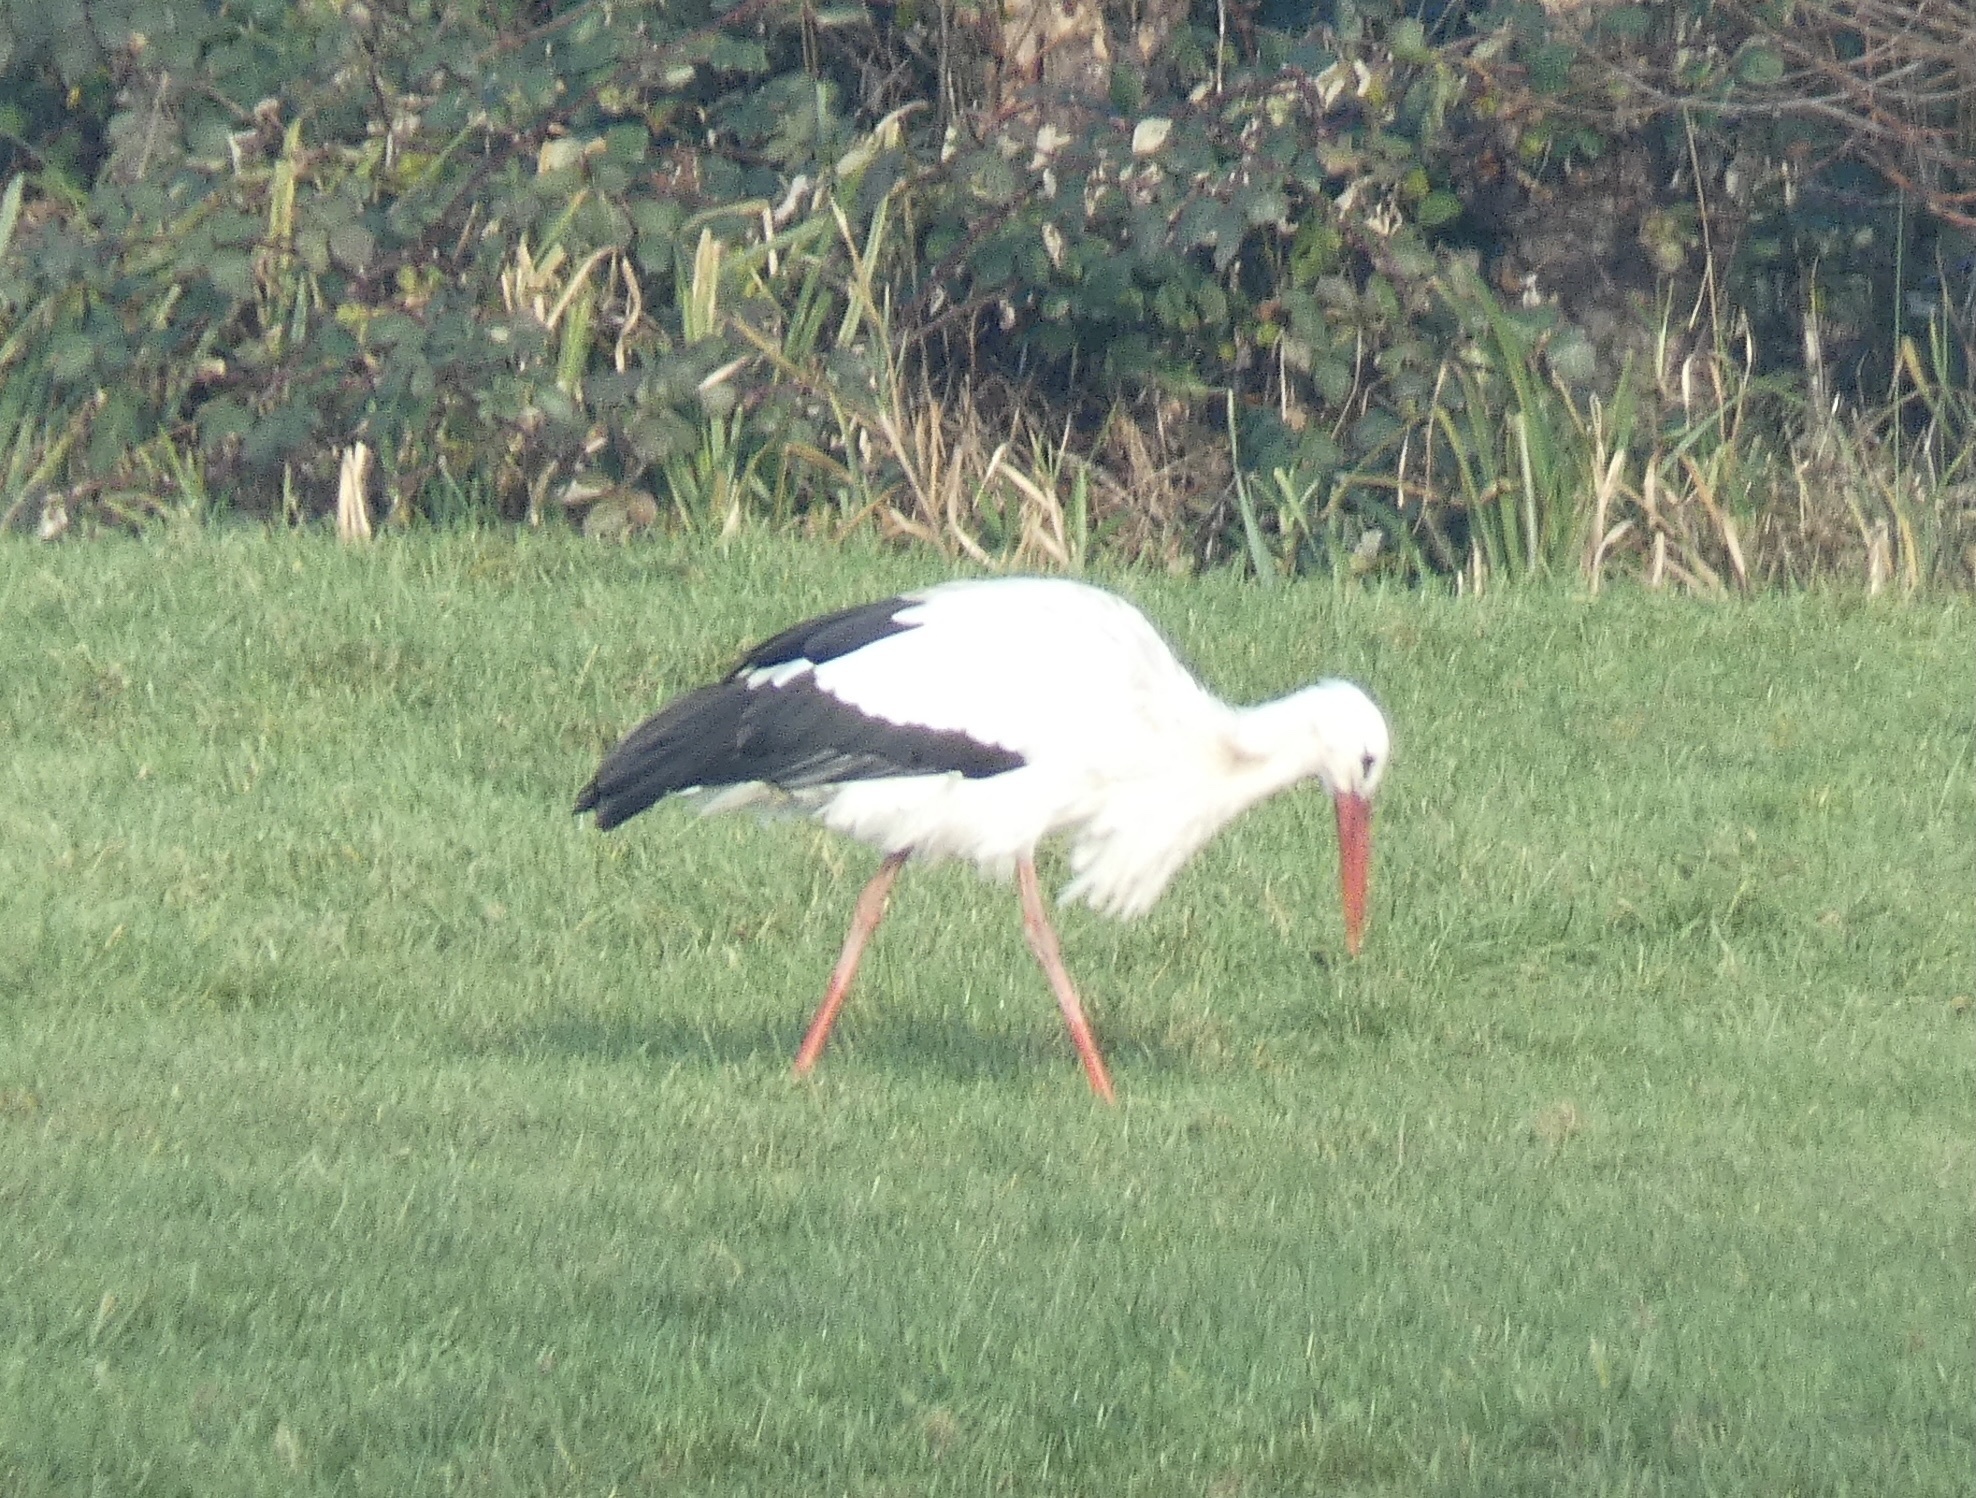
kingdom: Animalia
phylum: Chordata
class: Aves
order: Ciconiiformes
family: Ciconiidae
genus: Ciconia
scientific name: Ciconia ciconia
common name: White stork
